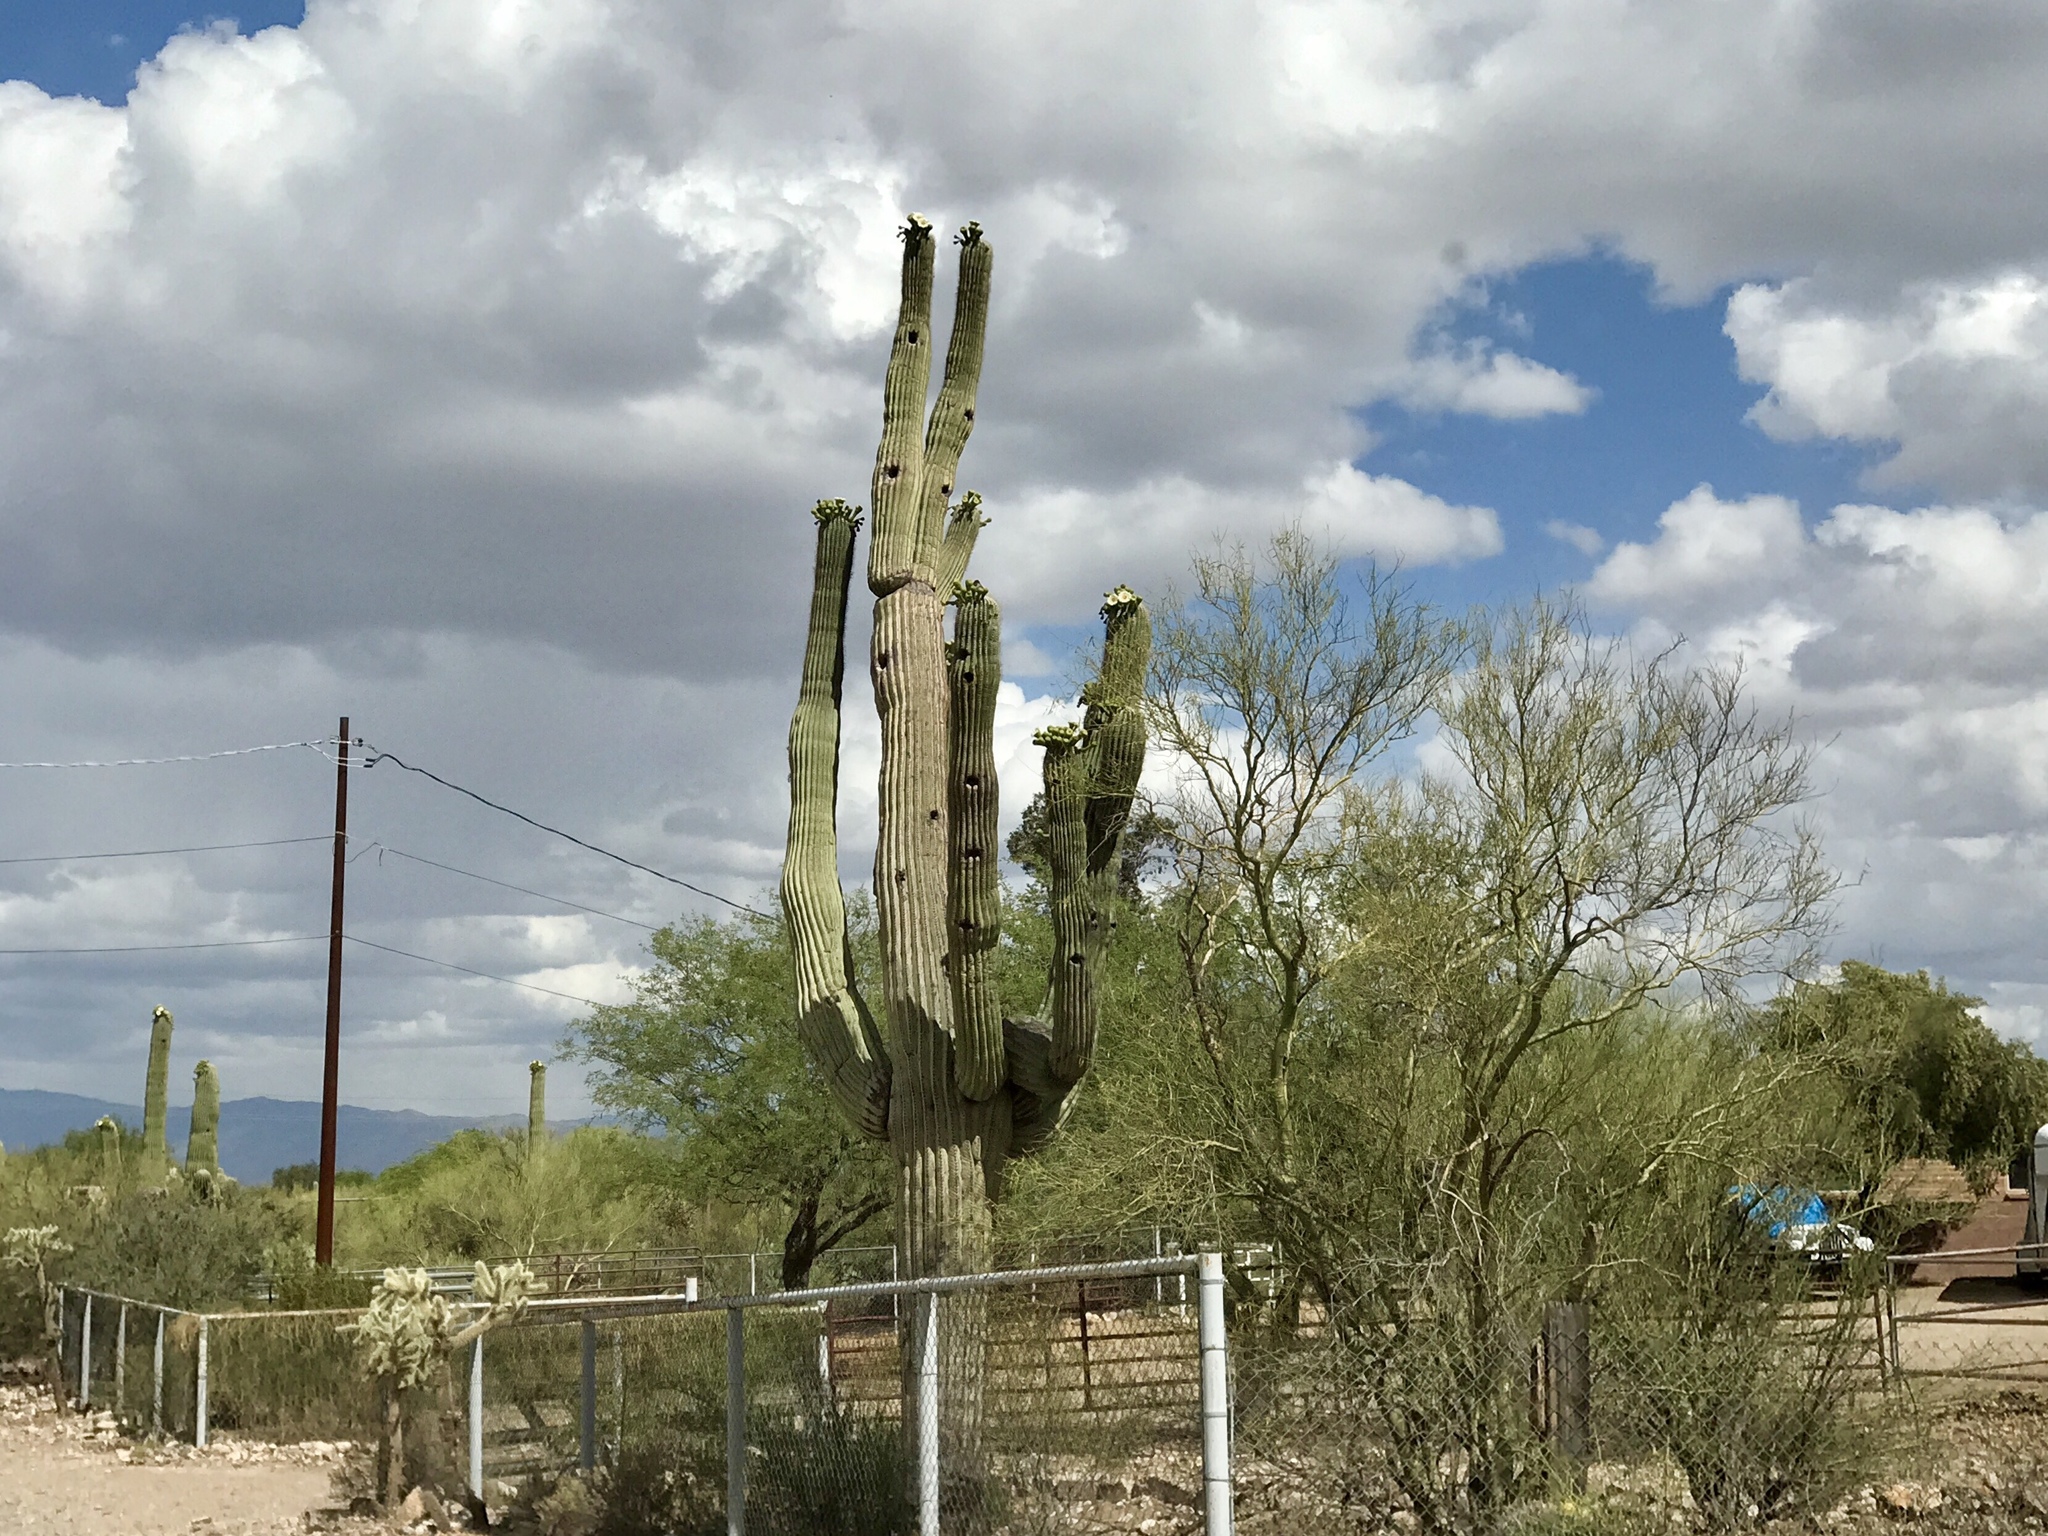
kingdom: Plantae
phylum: Tracheophyta
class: Magnoliopsida
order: Caryophyllales
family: Cactaceae
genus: Carnegiea
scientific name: Carnegiea gigantea
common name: Saguaro
